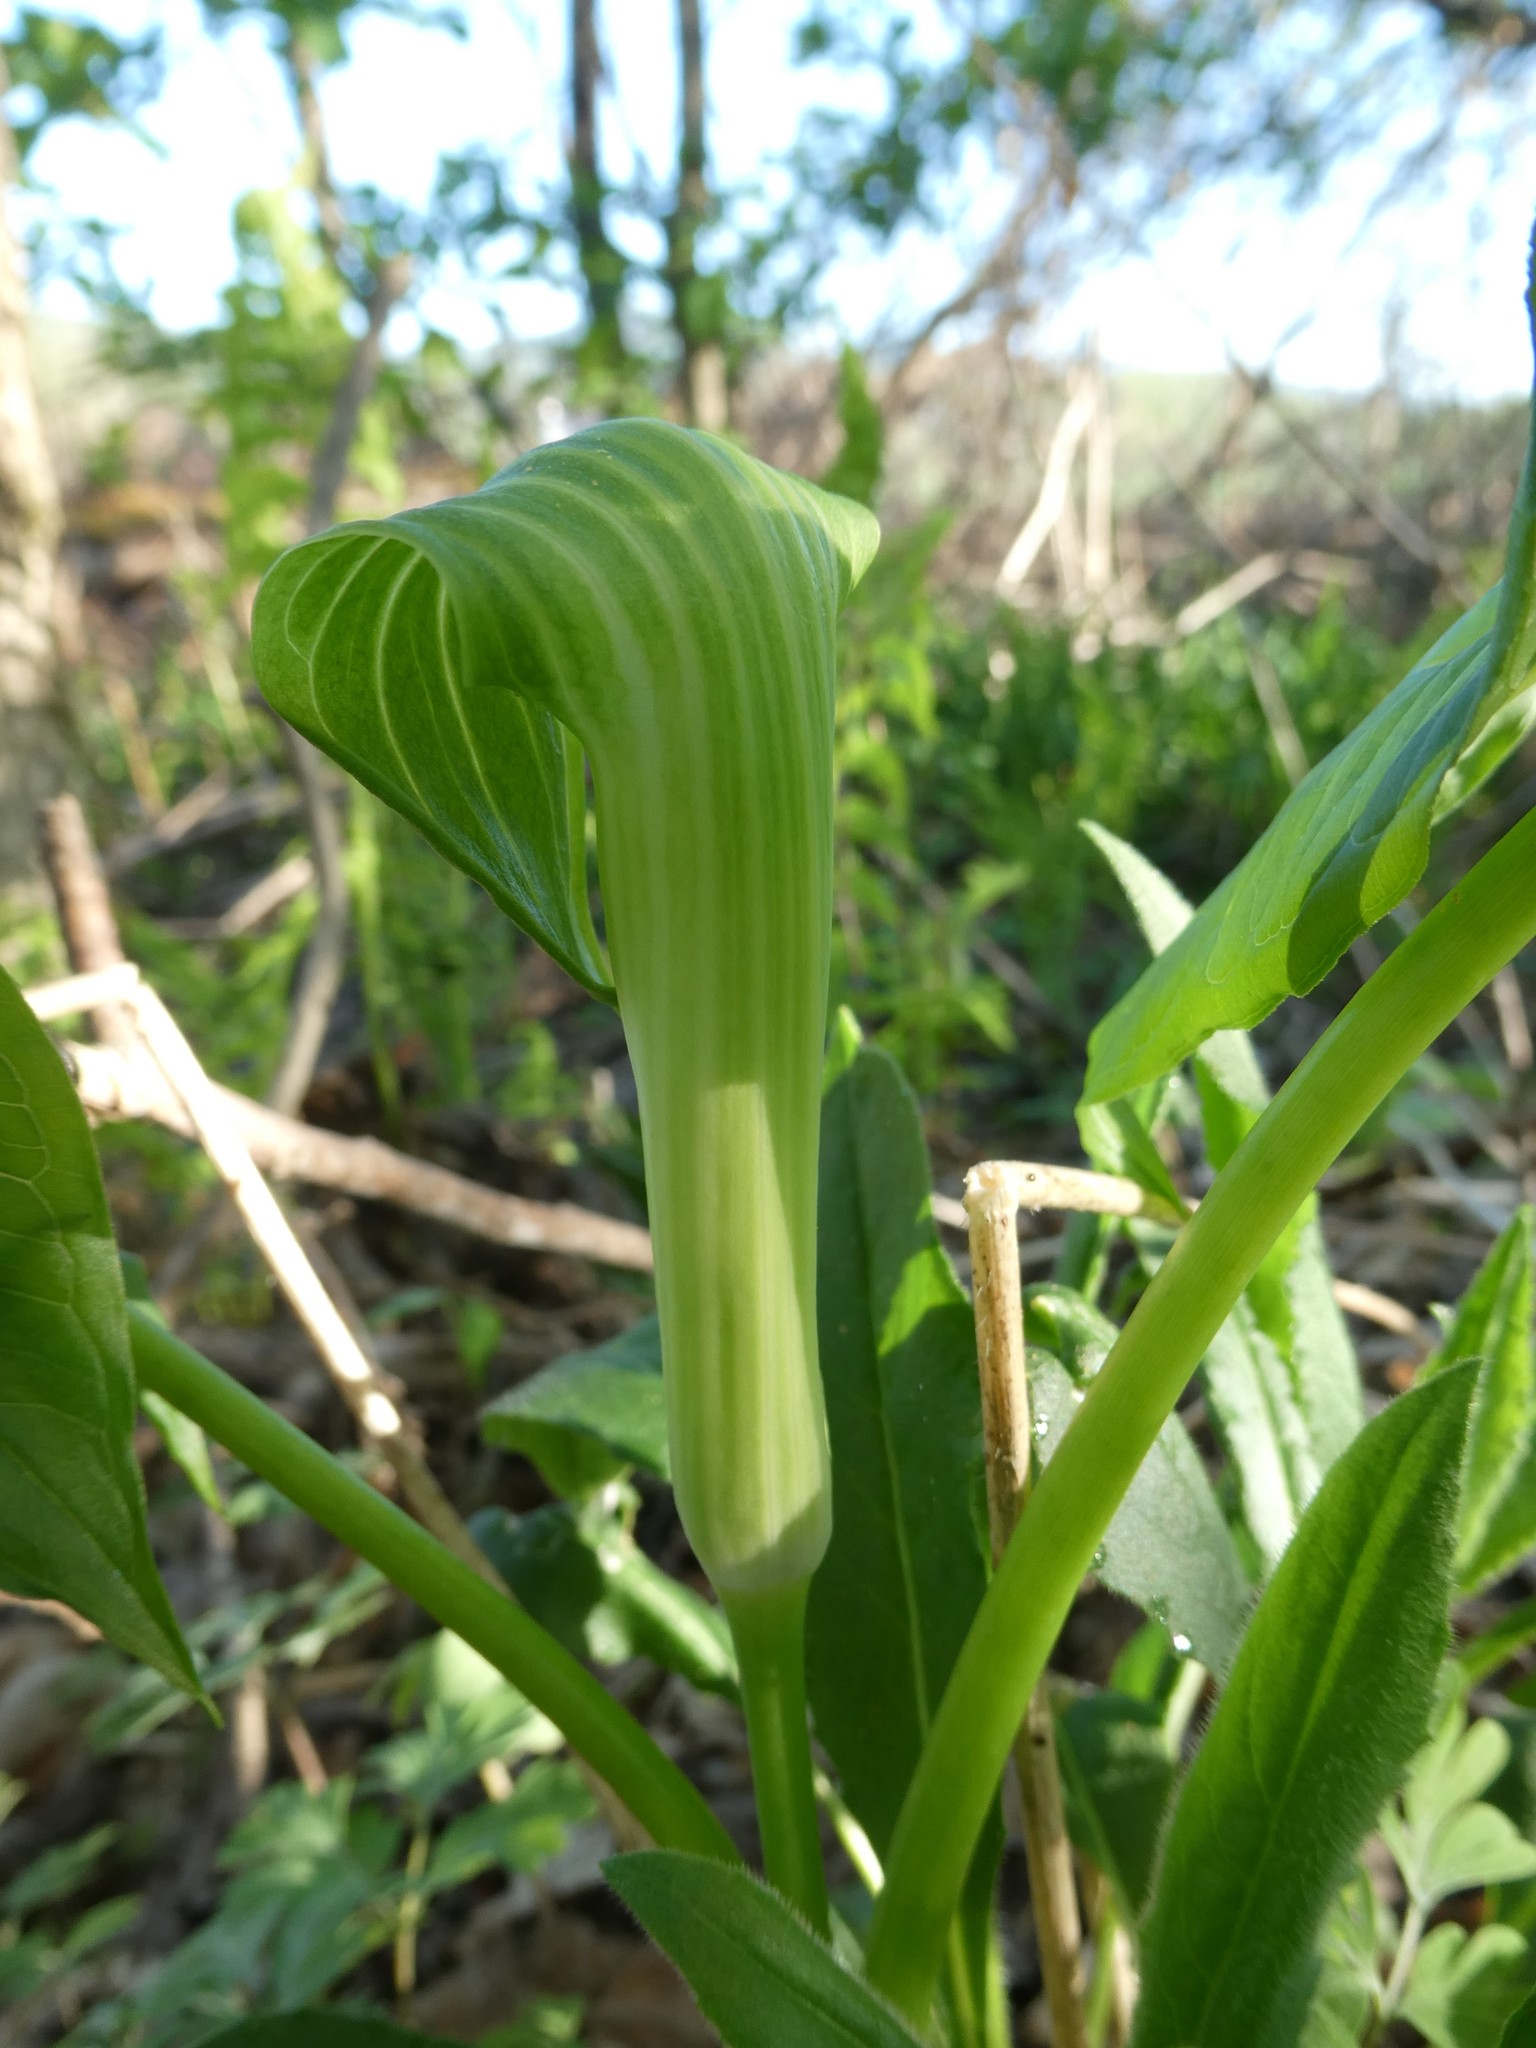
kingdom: Plantae
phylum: Tracheophyta
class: Liliopsida
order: Alismatales
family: Araceae
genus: Arisaema
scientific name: Arisaema triphyllum
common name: Jack-in-the-pulpit
